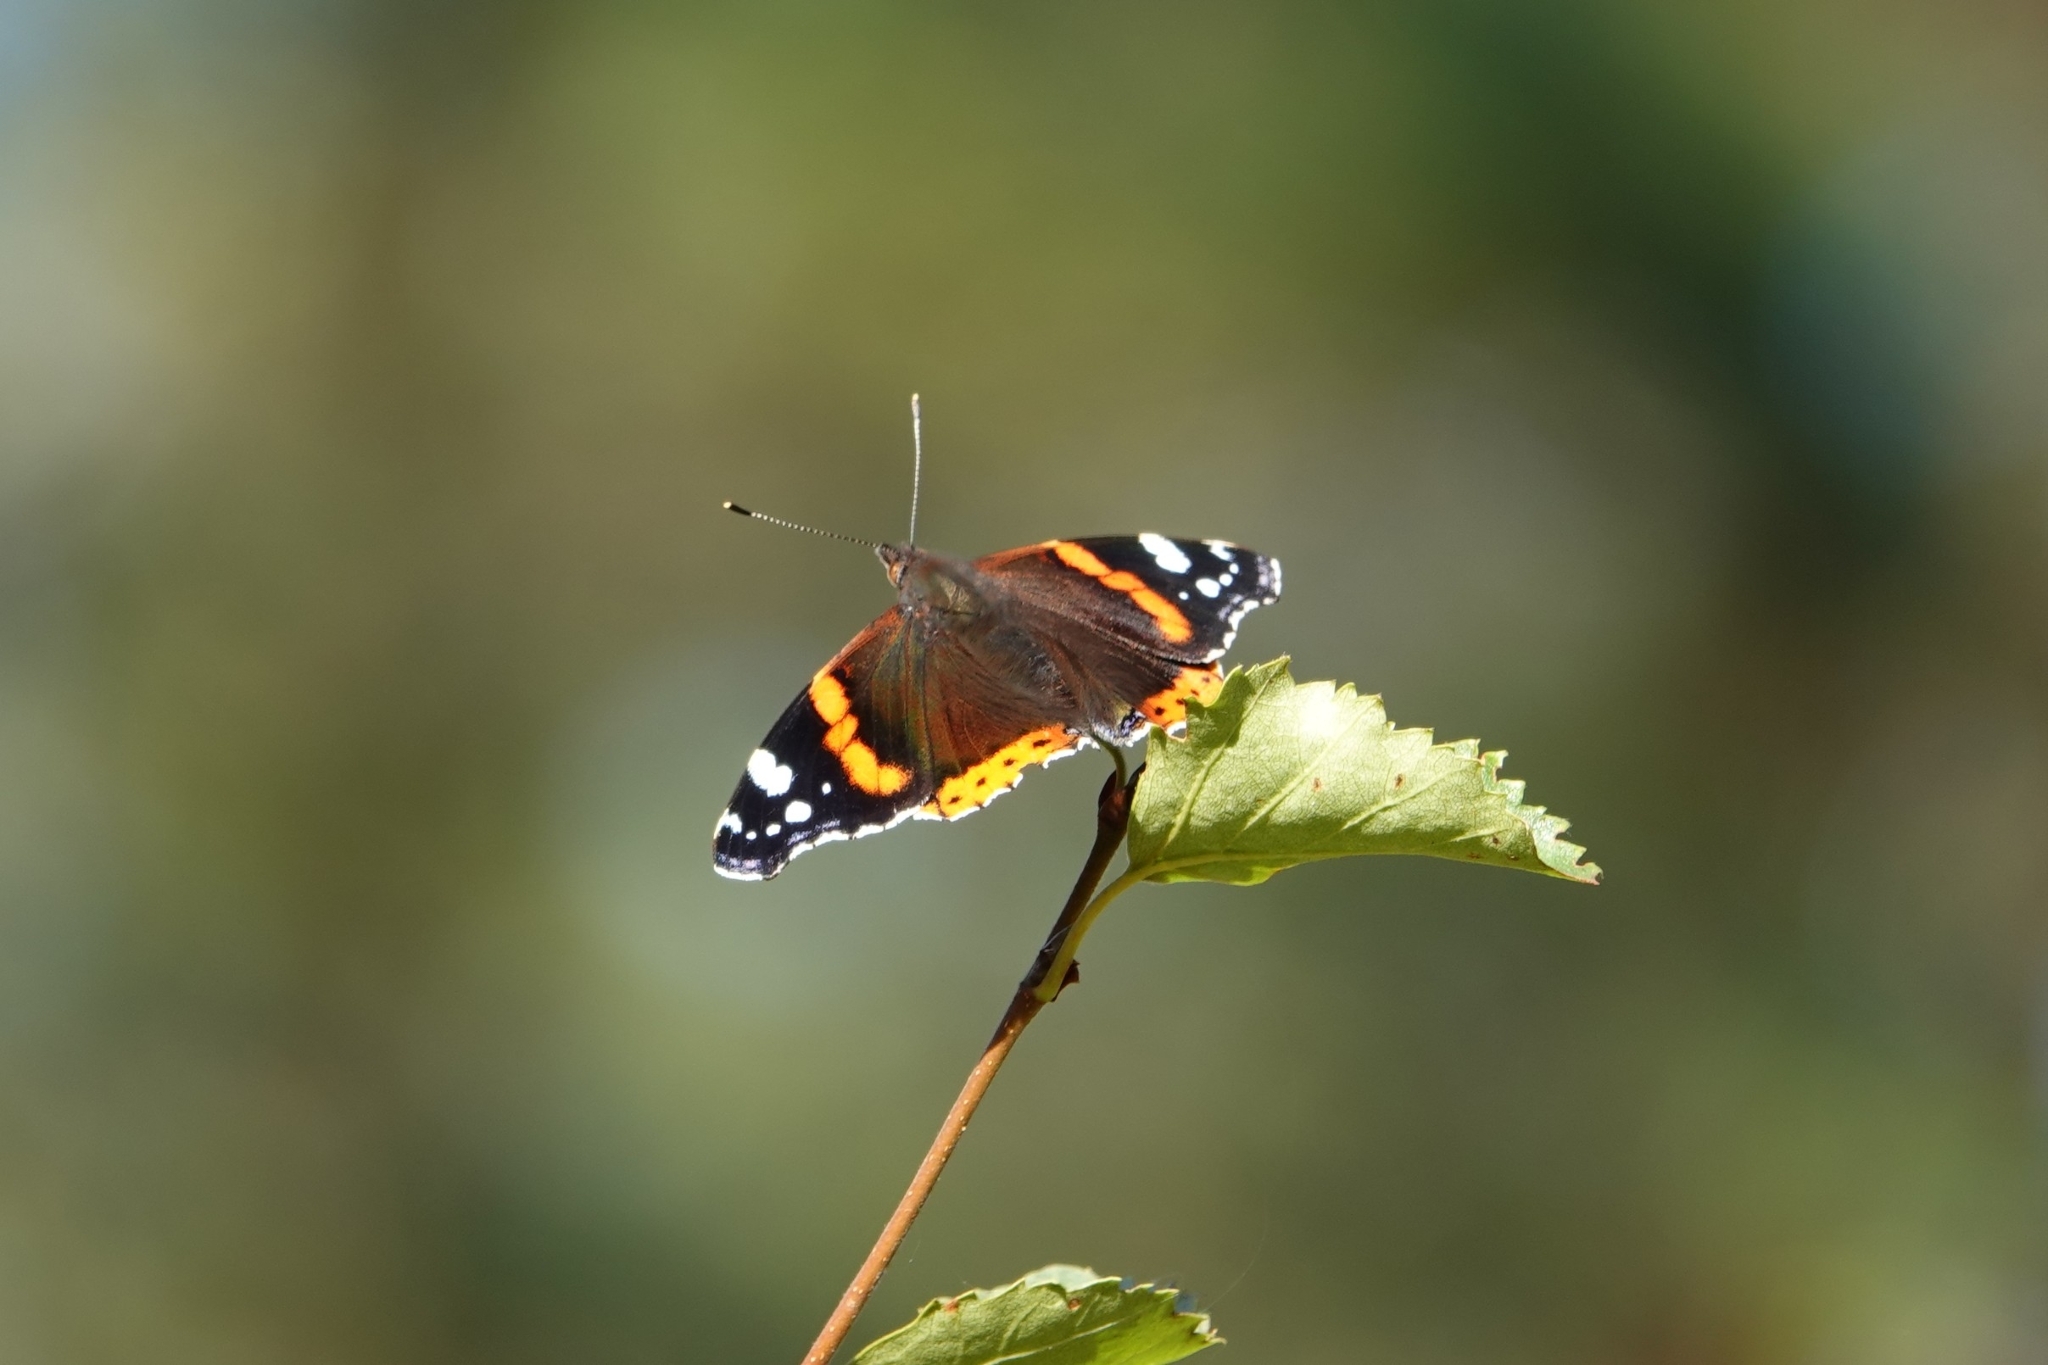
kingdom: Animalia
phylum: Arthropoda
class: Insecta
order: Lepidoptera
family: Nymphalidae
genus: Vanessa
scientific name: Vanessa atalanta
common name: Red admiral
